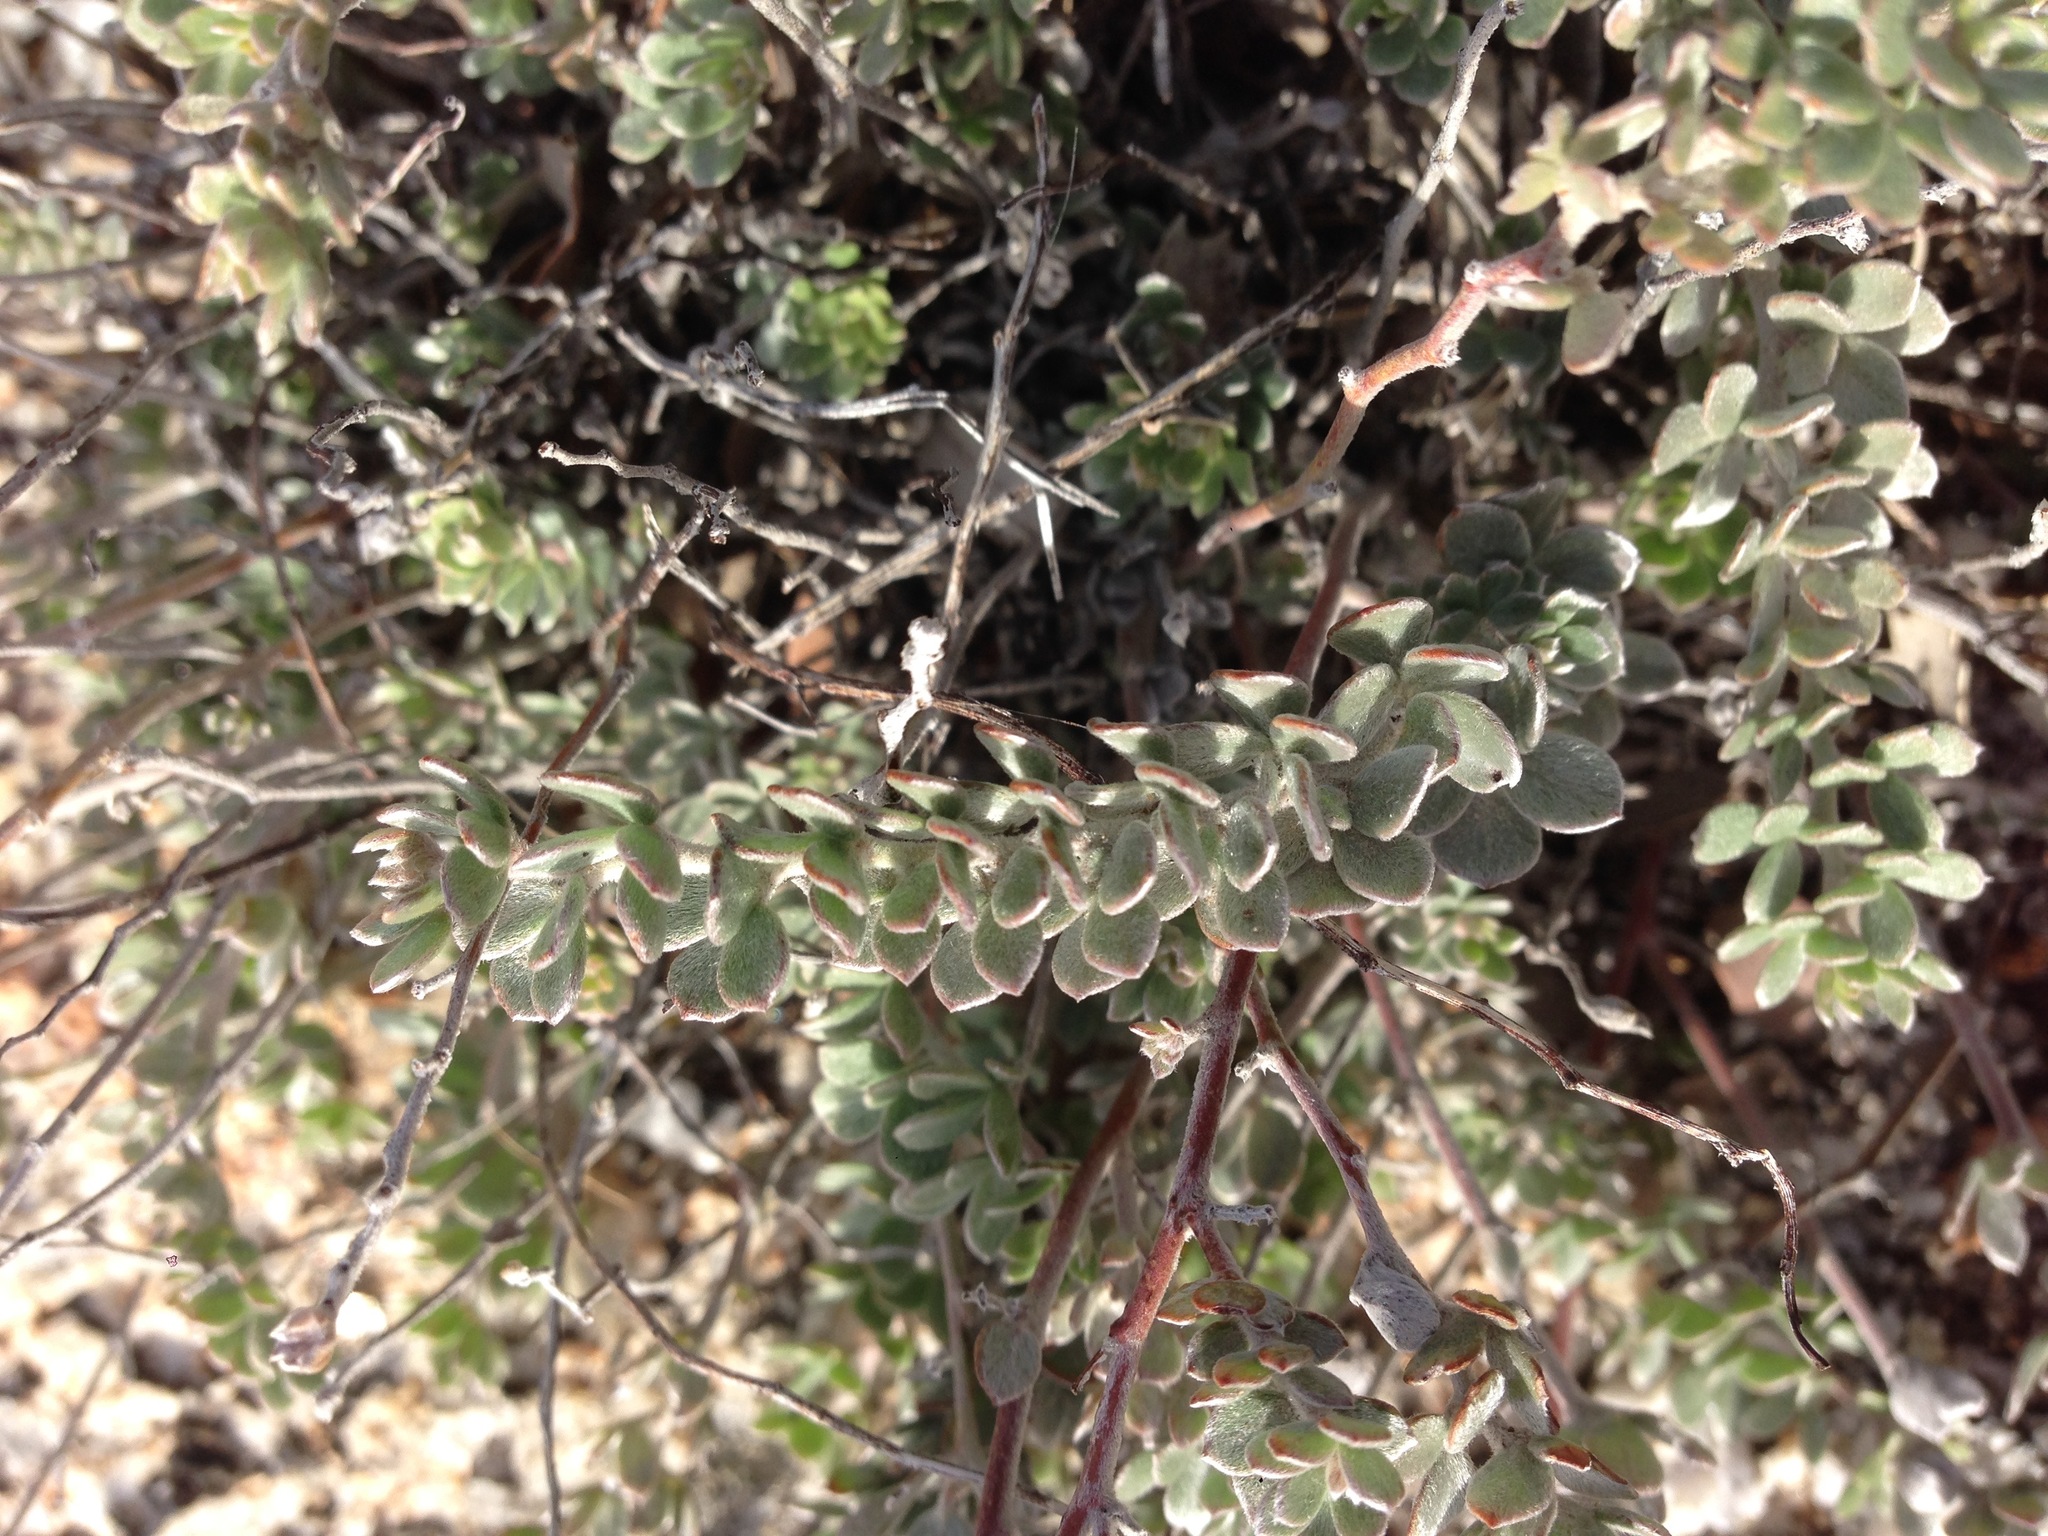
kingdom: Plantae
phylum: Tracheophyta
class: Magnoliopsida
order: Fabales
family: Fabaceae
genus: Acmispon
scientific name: Acmispon argophyllus
